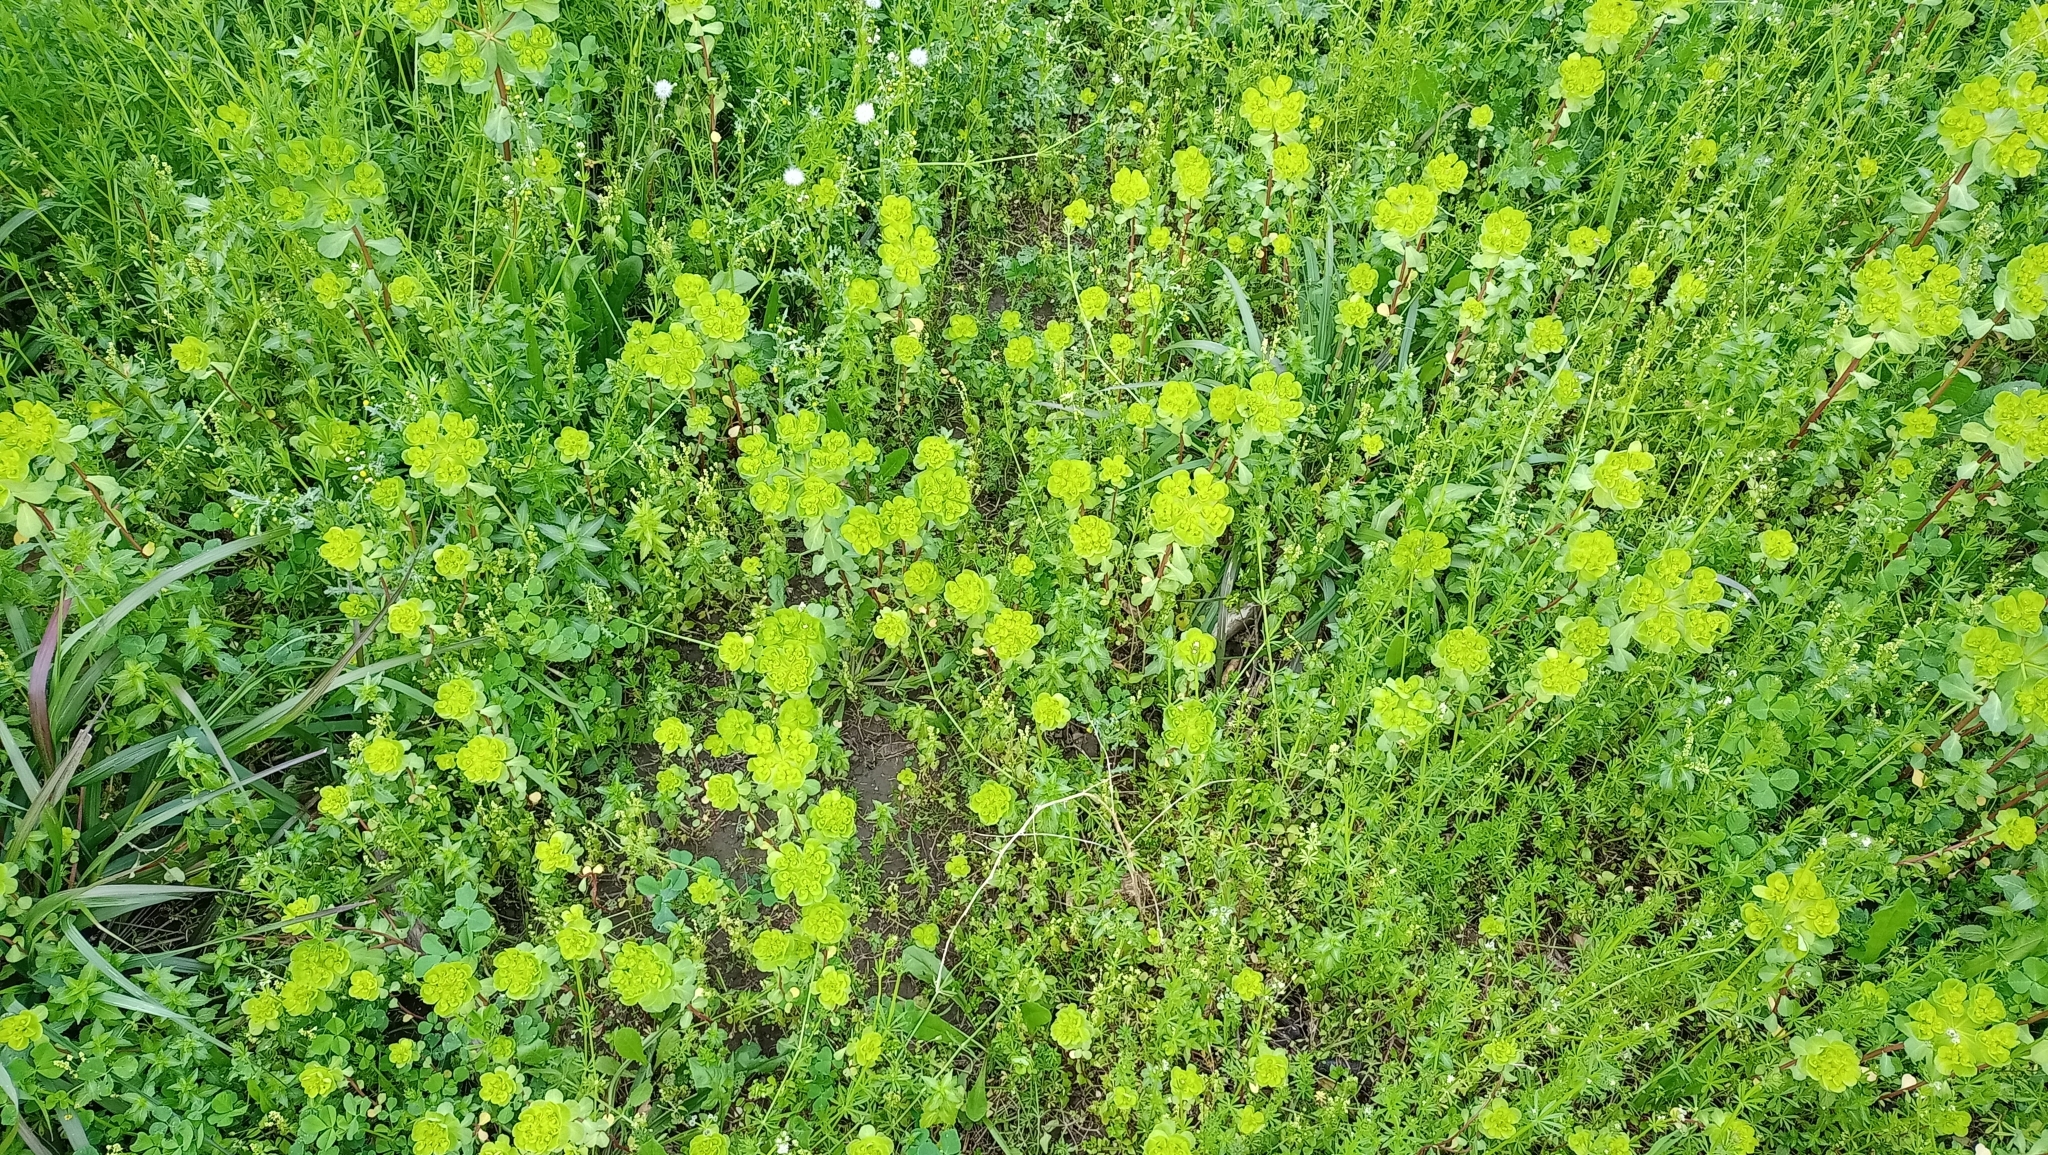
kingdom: Plantae
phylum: Tracheophyta
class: Magnoliopsida
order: Malpighiales
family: Euphorbiaceae
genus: Euphorbia
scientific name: Euphorbia helioscopia
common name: Sun spurge
